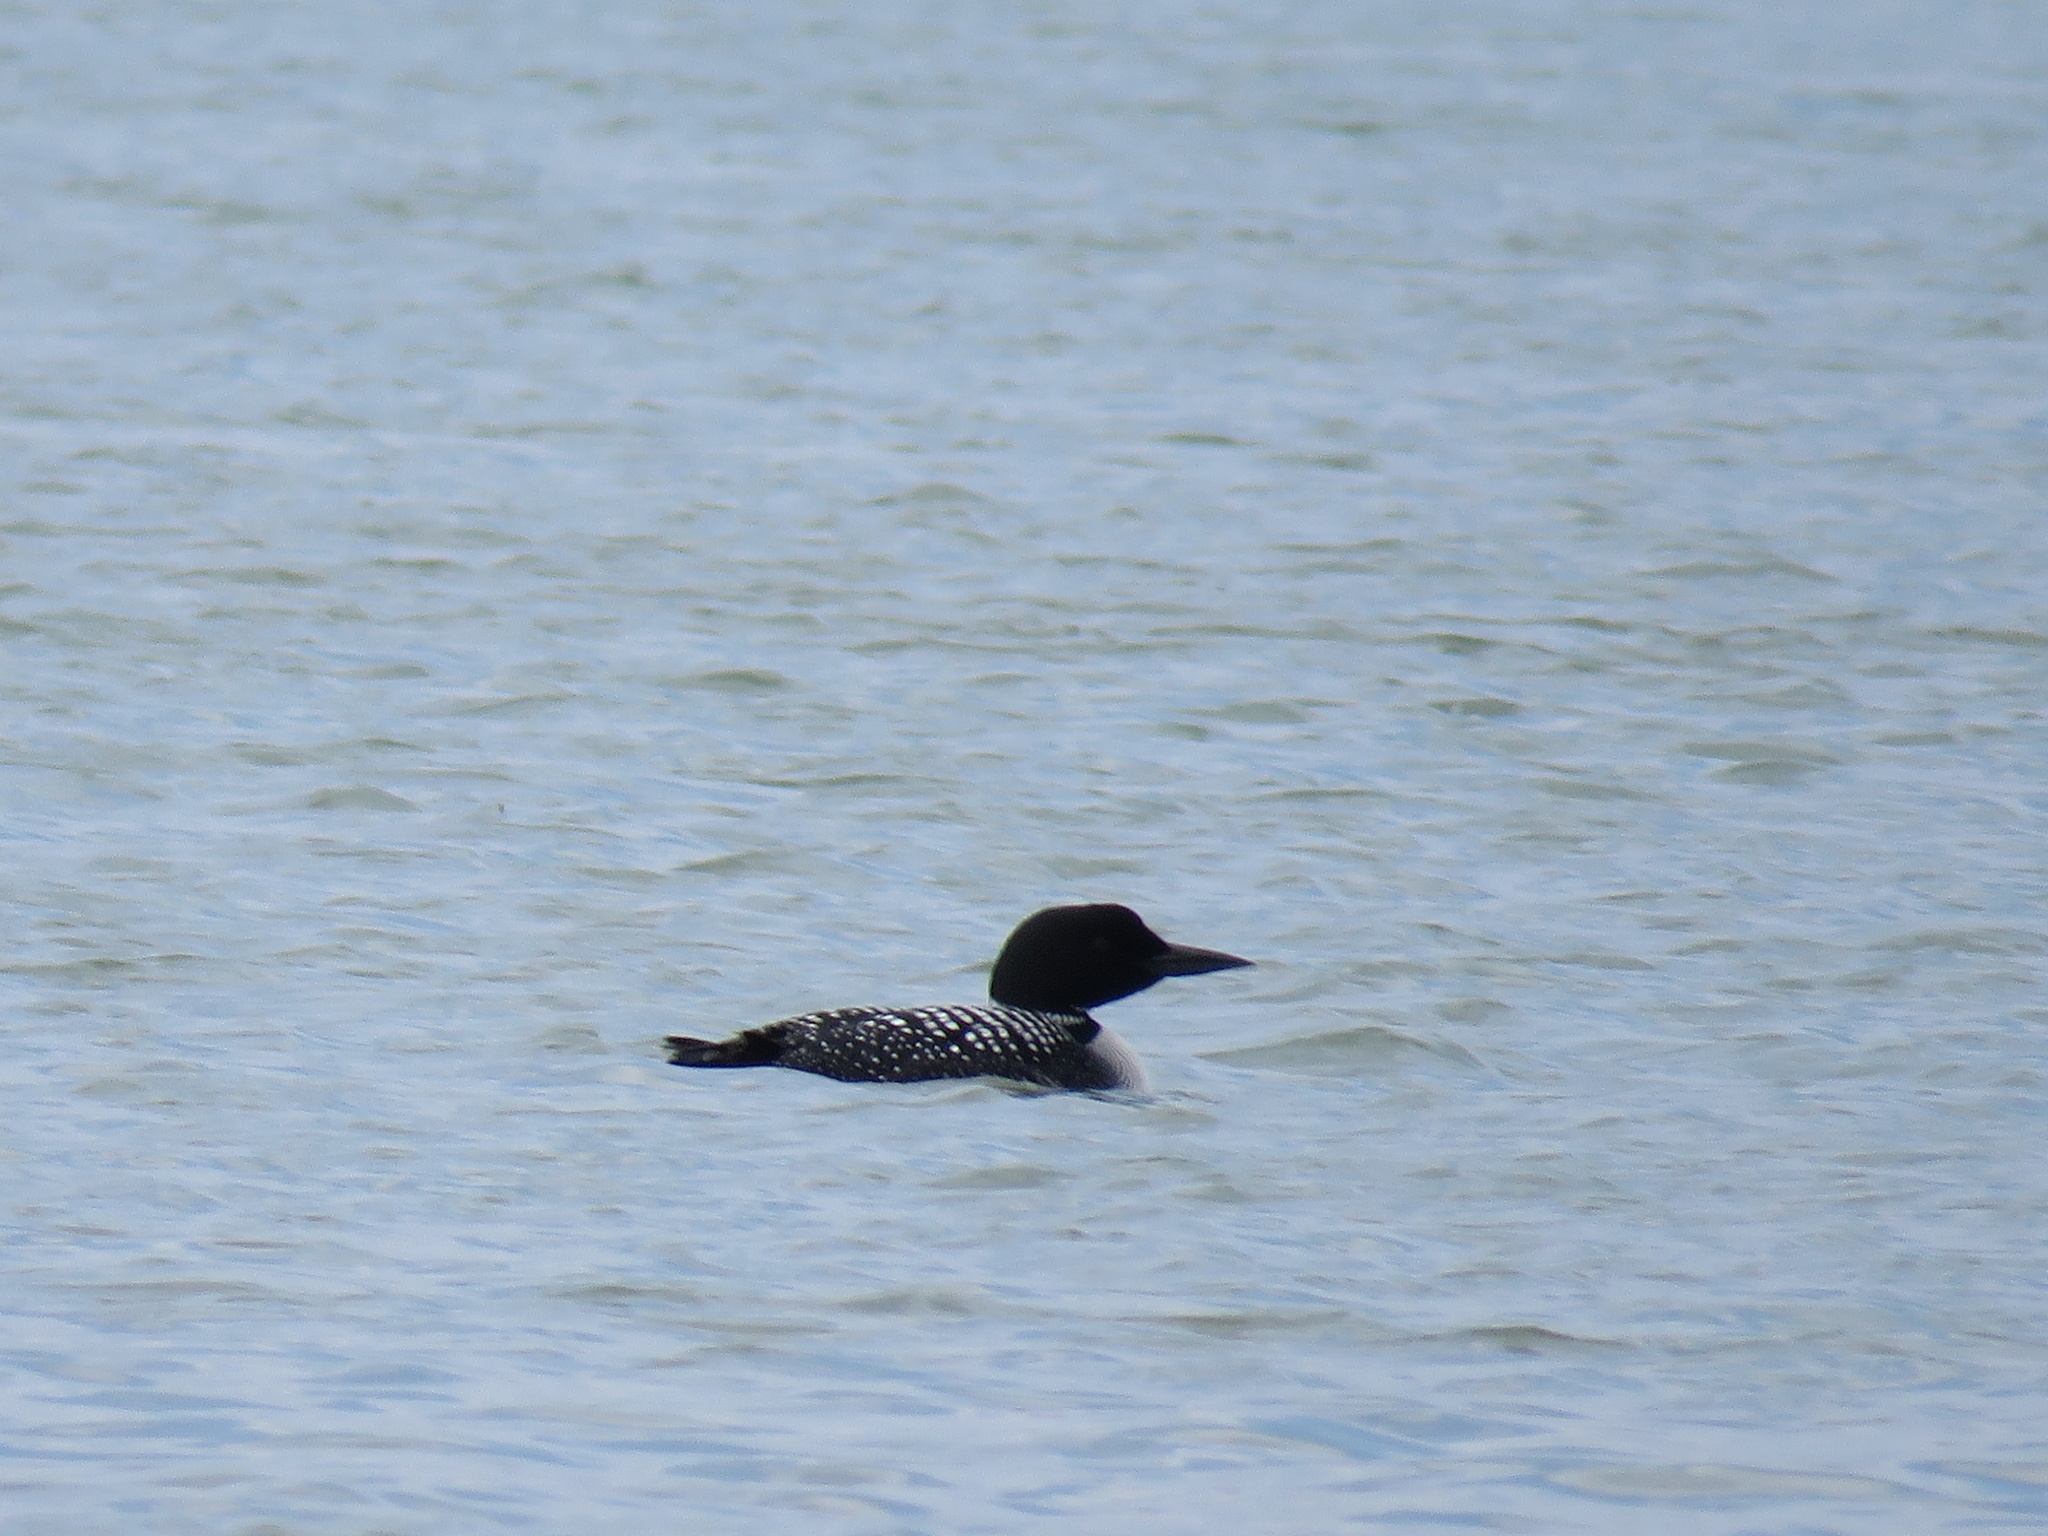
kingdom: Animalia
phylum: Chordata
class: Aves
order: Gaviiformes
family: Gaviidae
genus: Gavia
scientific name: Gavia immer
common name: Common loon
